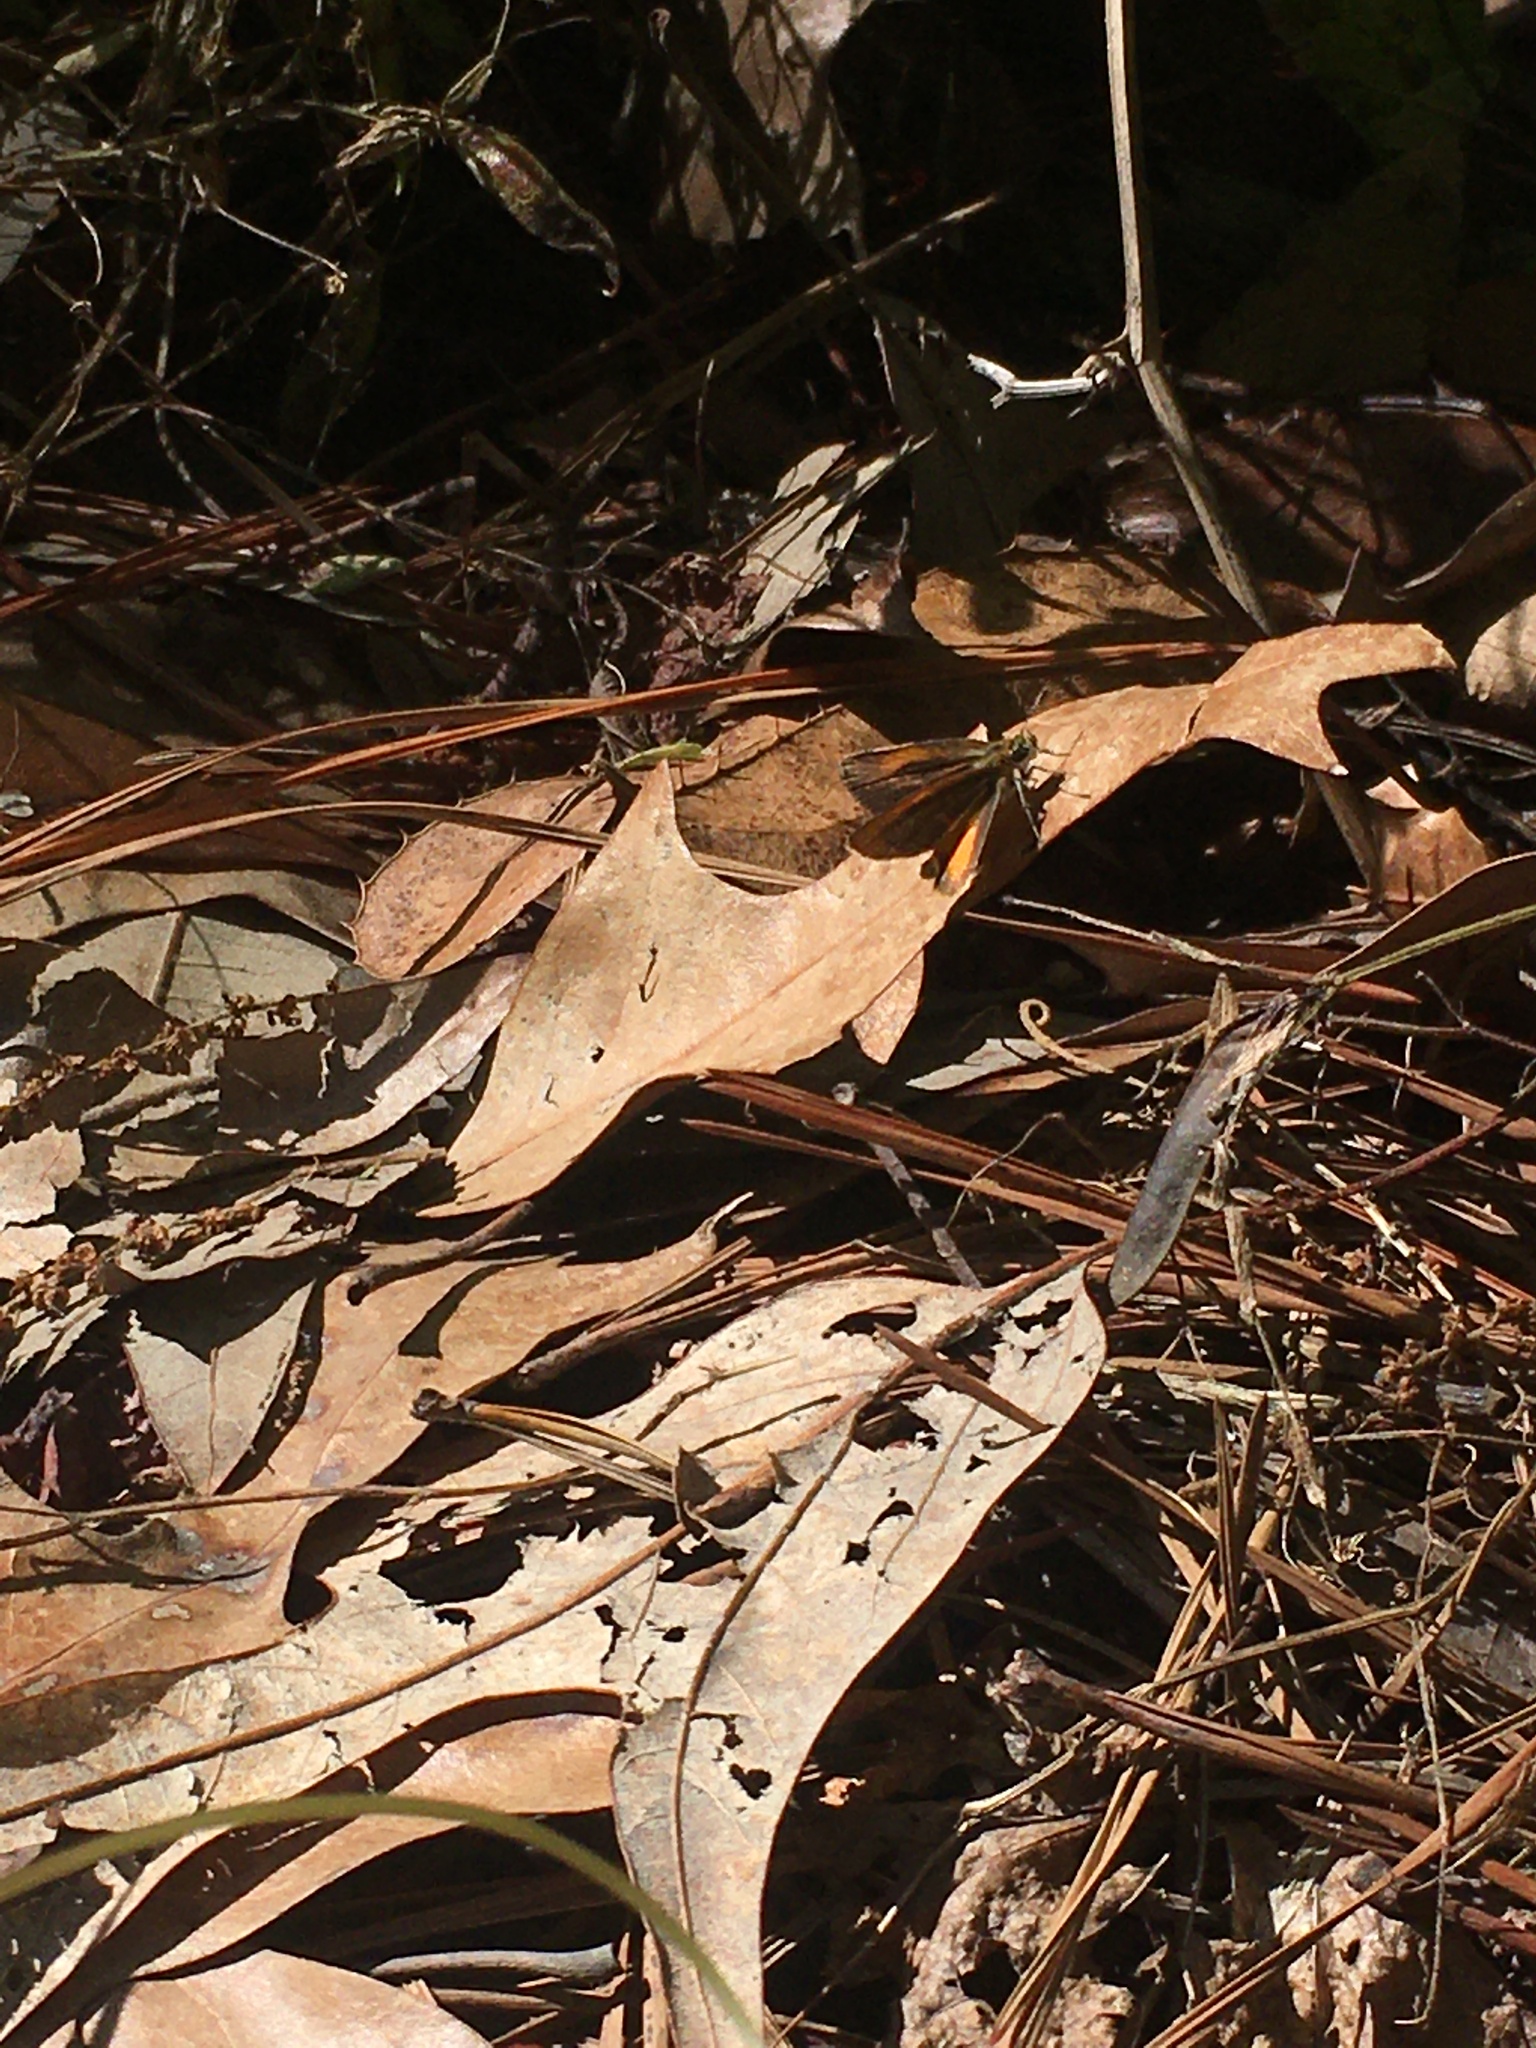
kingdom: Animalia
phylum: Arthropoda
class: Insecta
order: Lepidoptera
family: Hesperiidae
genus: Ancyloxypha
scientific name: Ancyloxypha numitor
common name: Least skipper
